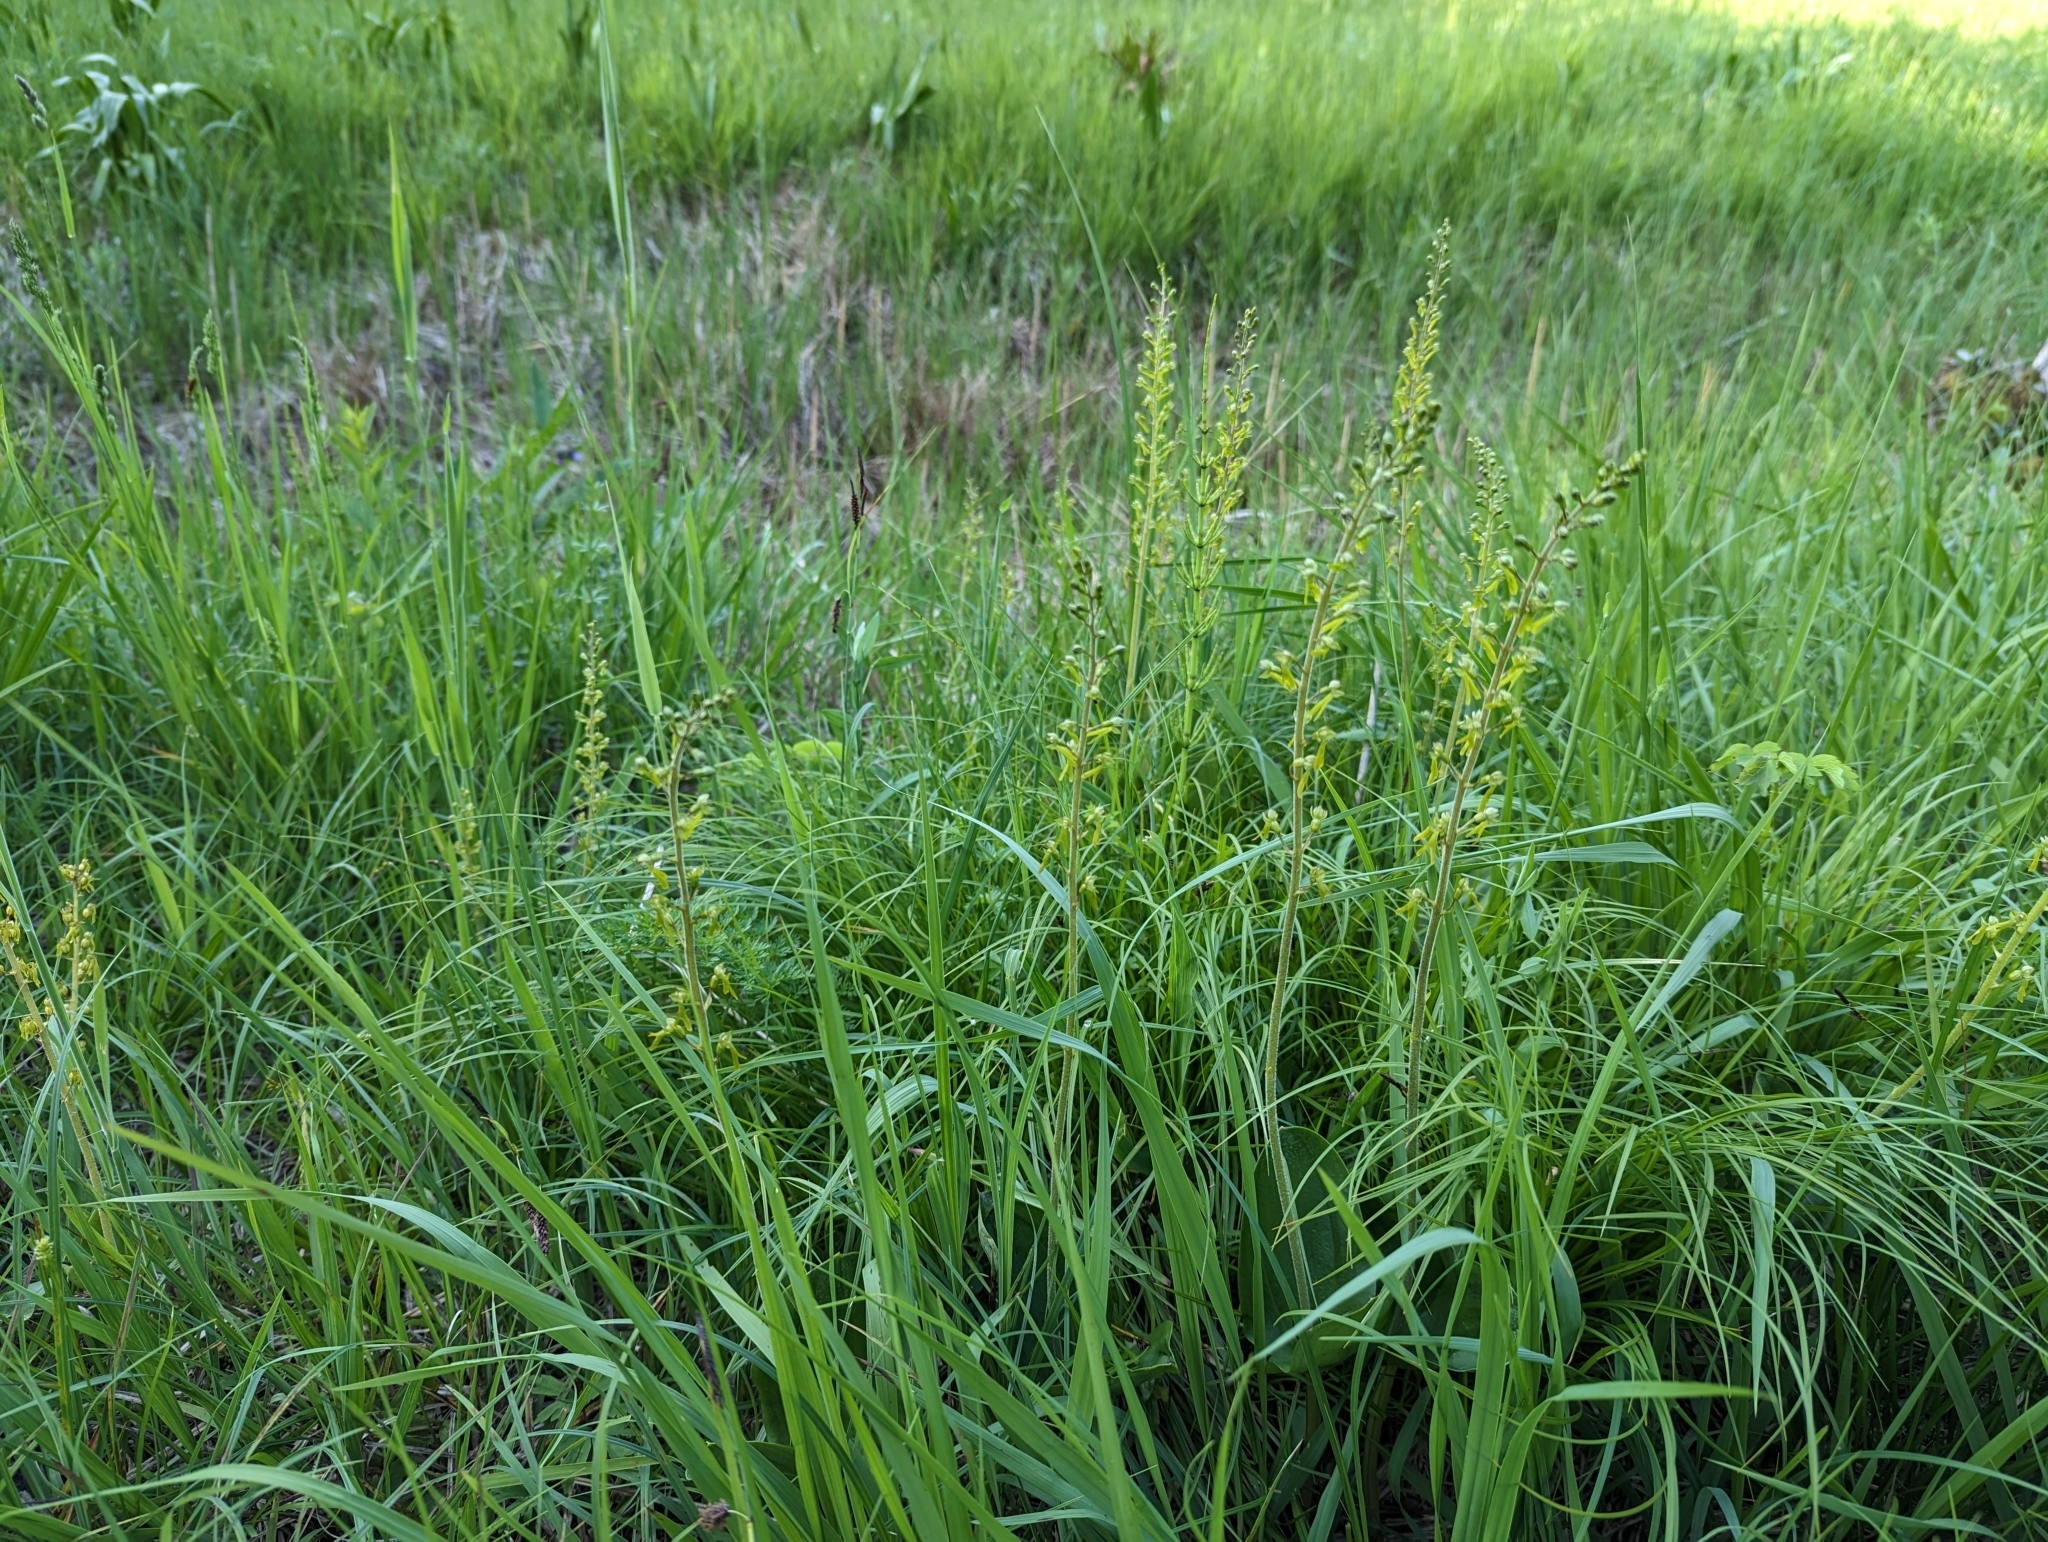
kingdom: Plantae
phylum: Tracheophyta
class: Liliopsida
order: Asparagales
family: Orchidaceae
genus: Neottia
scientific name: Neottia ovata
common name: Common twayblade
